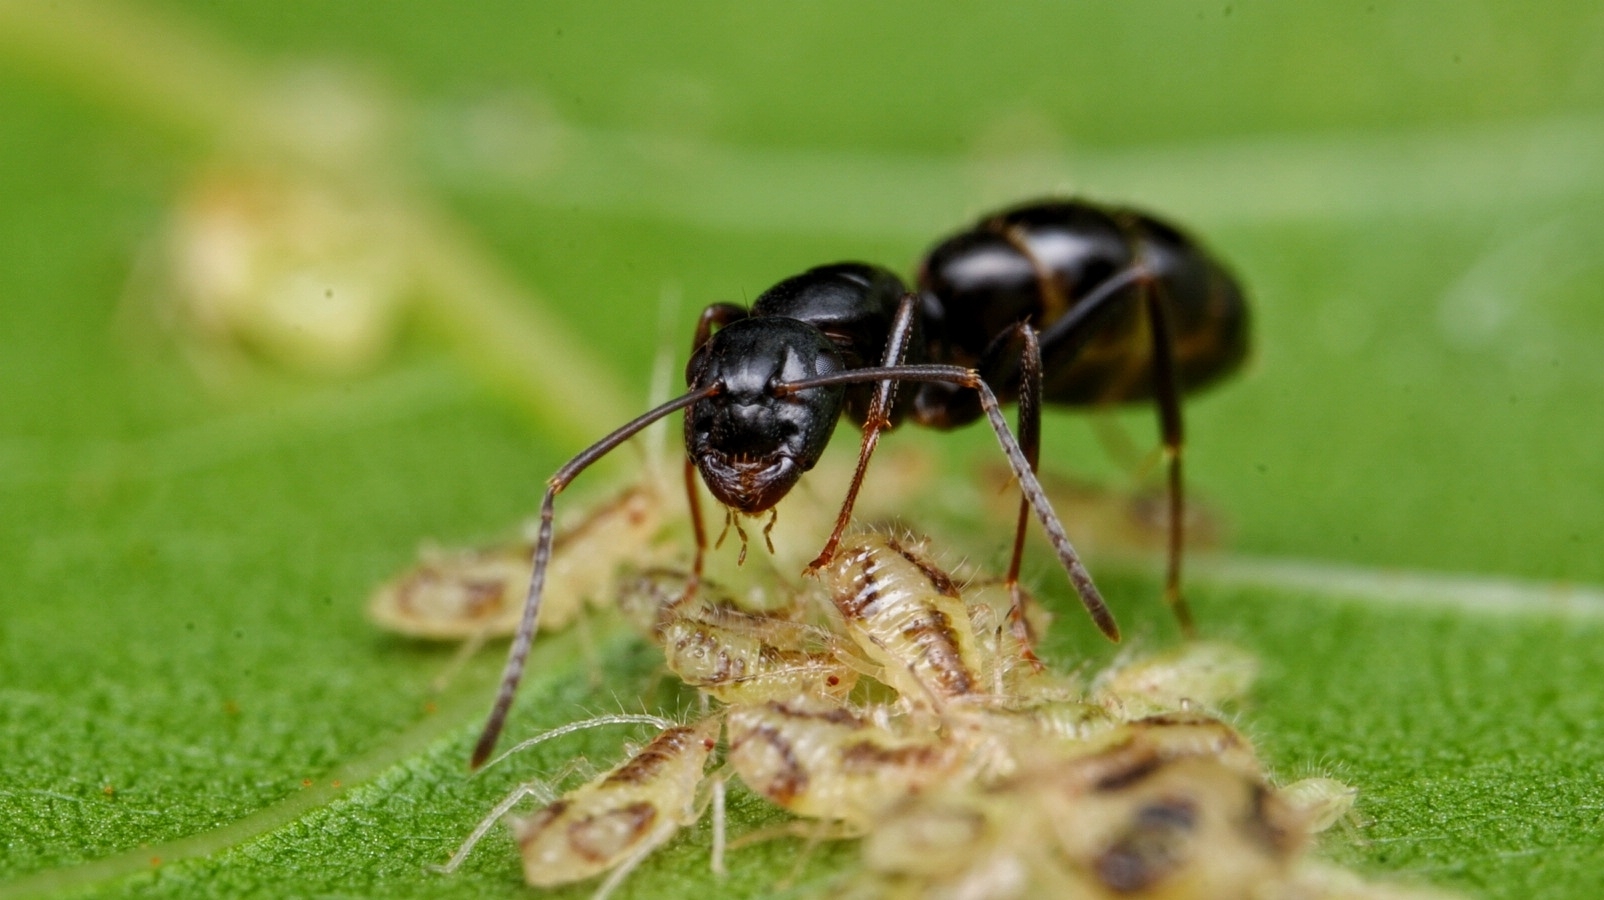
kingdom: Animalia
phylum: Arthropoda
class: Insecta
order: Hymenoptera
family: Formicidae
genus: Camponotus
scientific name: Camponotus nearcticus
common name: Smaller carpenter ant
